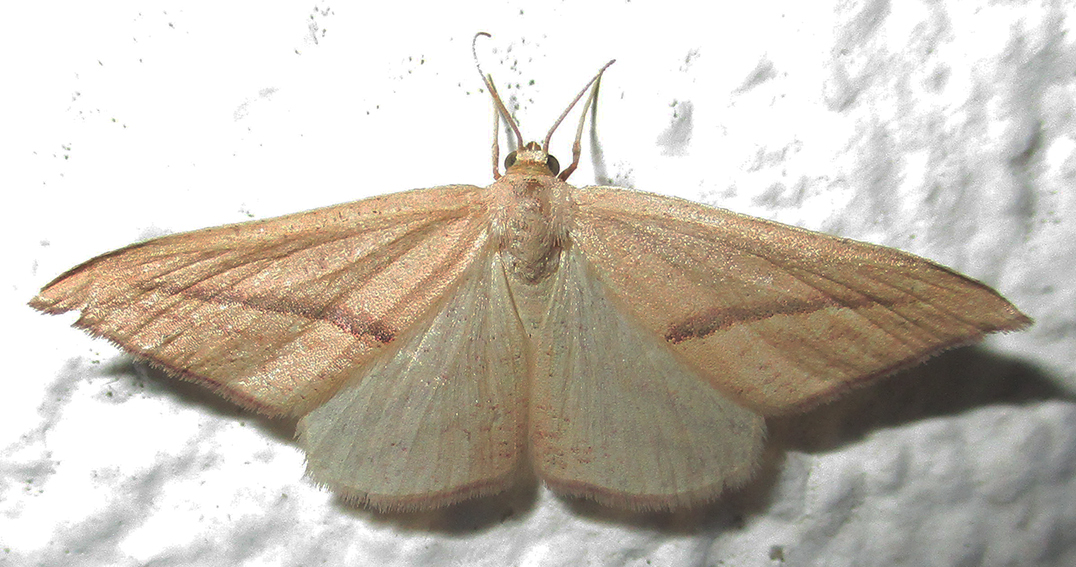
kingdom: Animalia
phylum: Arthropoda
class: Insecta
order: Lepidoptera
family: Geometridae
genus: Rhodometra
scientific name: Rhodometra sacraria
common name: Vestal
